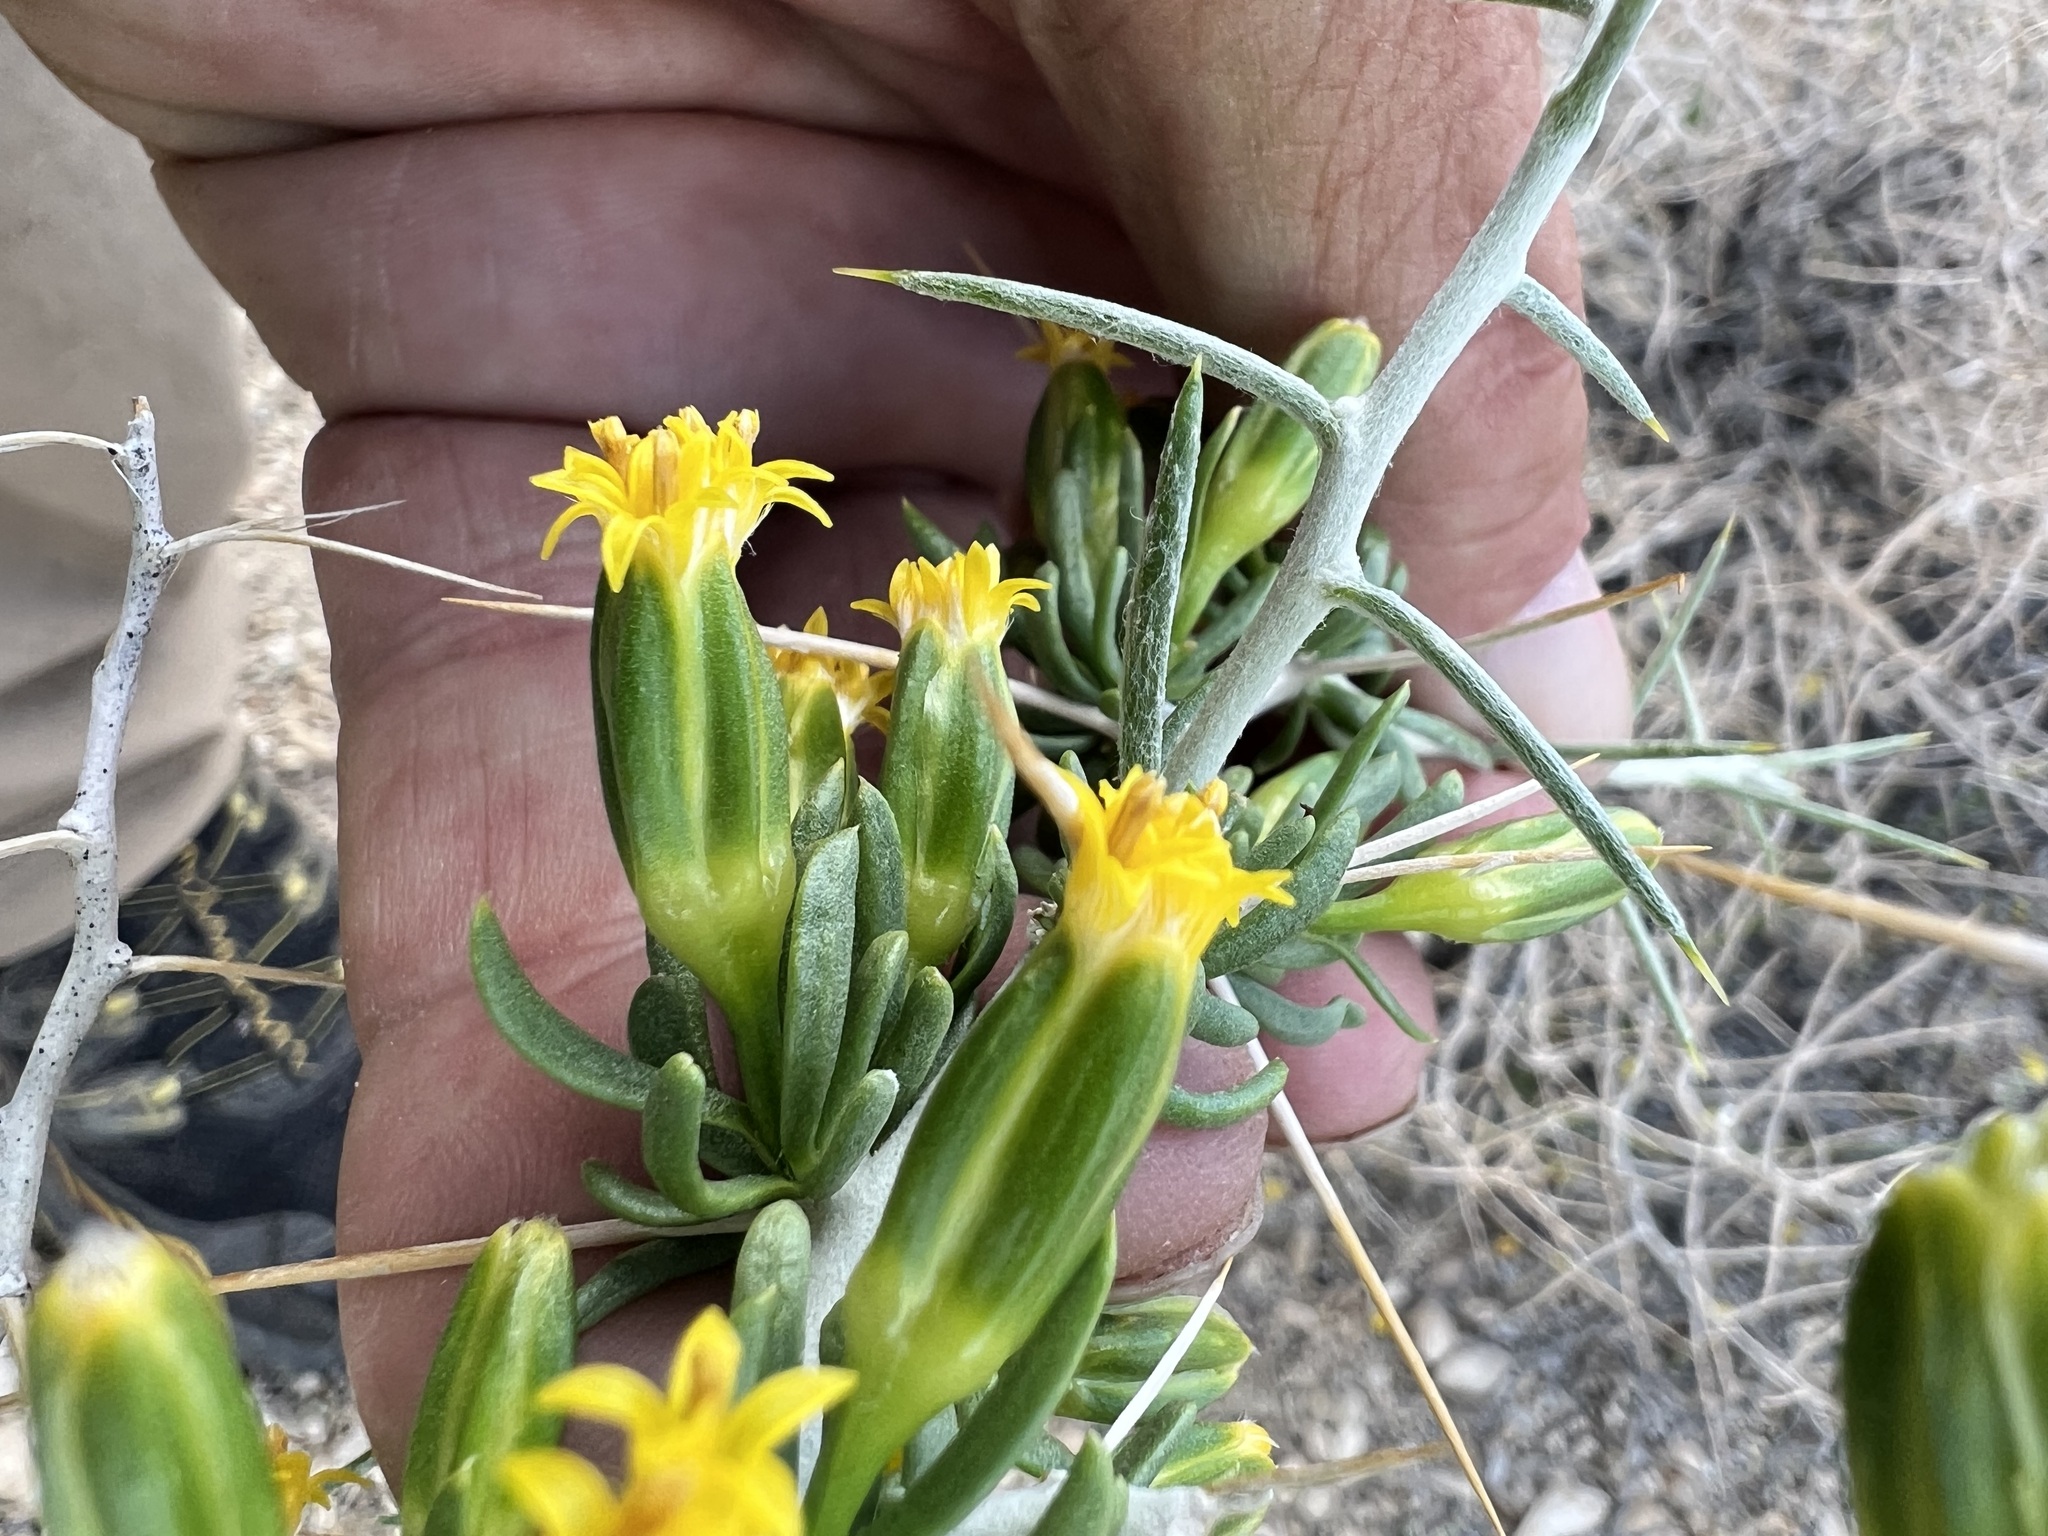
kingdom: Plantae
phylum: Tracheophyta
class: Magnoliopsida
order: Asterales
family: Asteraceae
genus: Tetradymia
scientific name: Tetradymia axillaris
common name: Long-spine horsebrush
